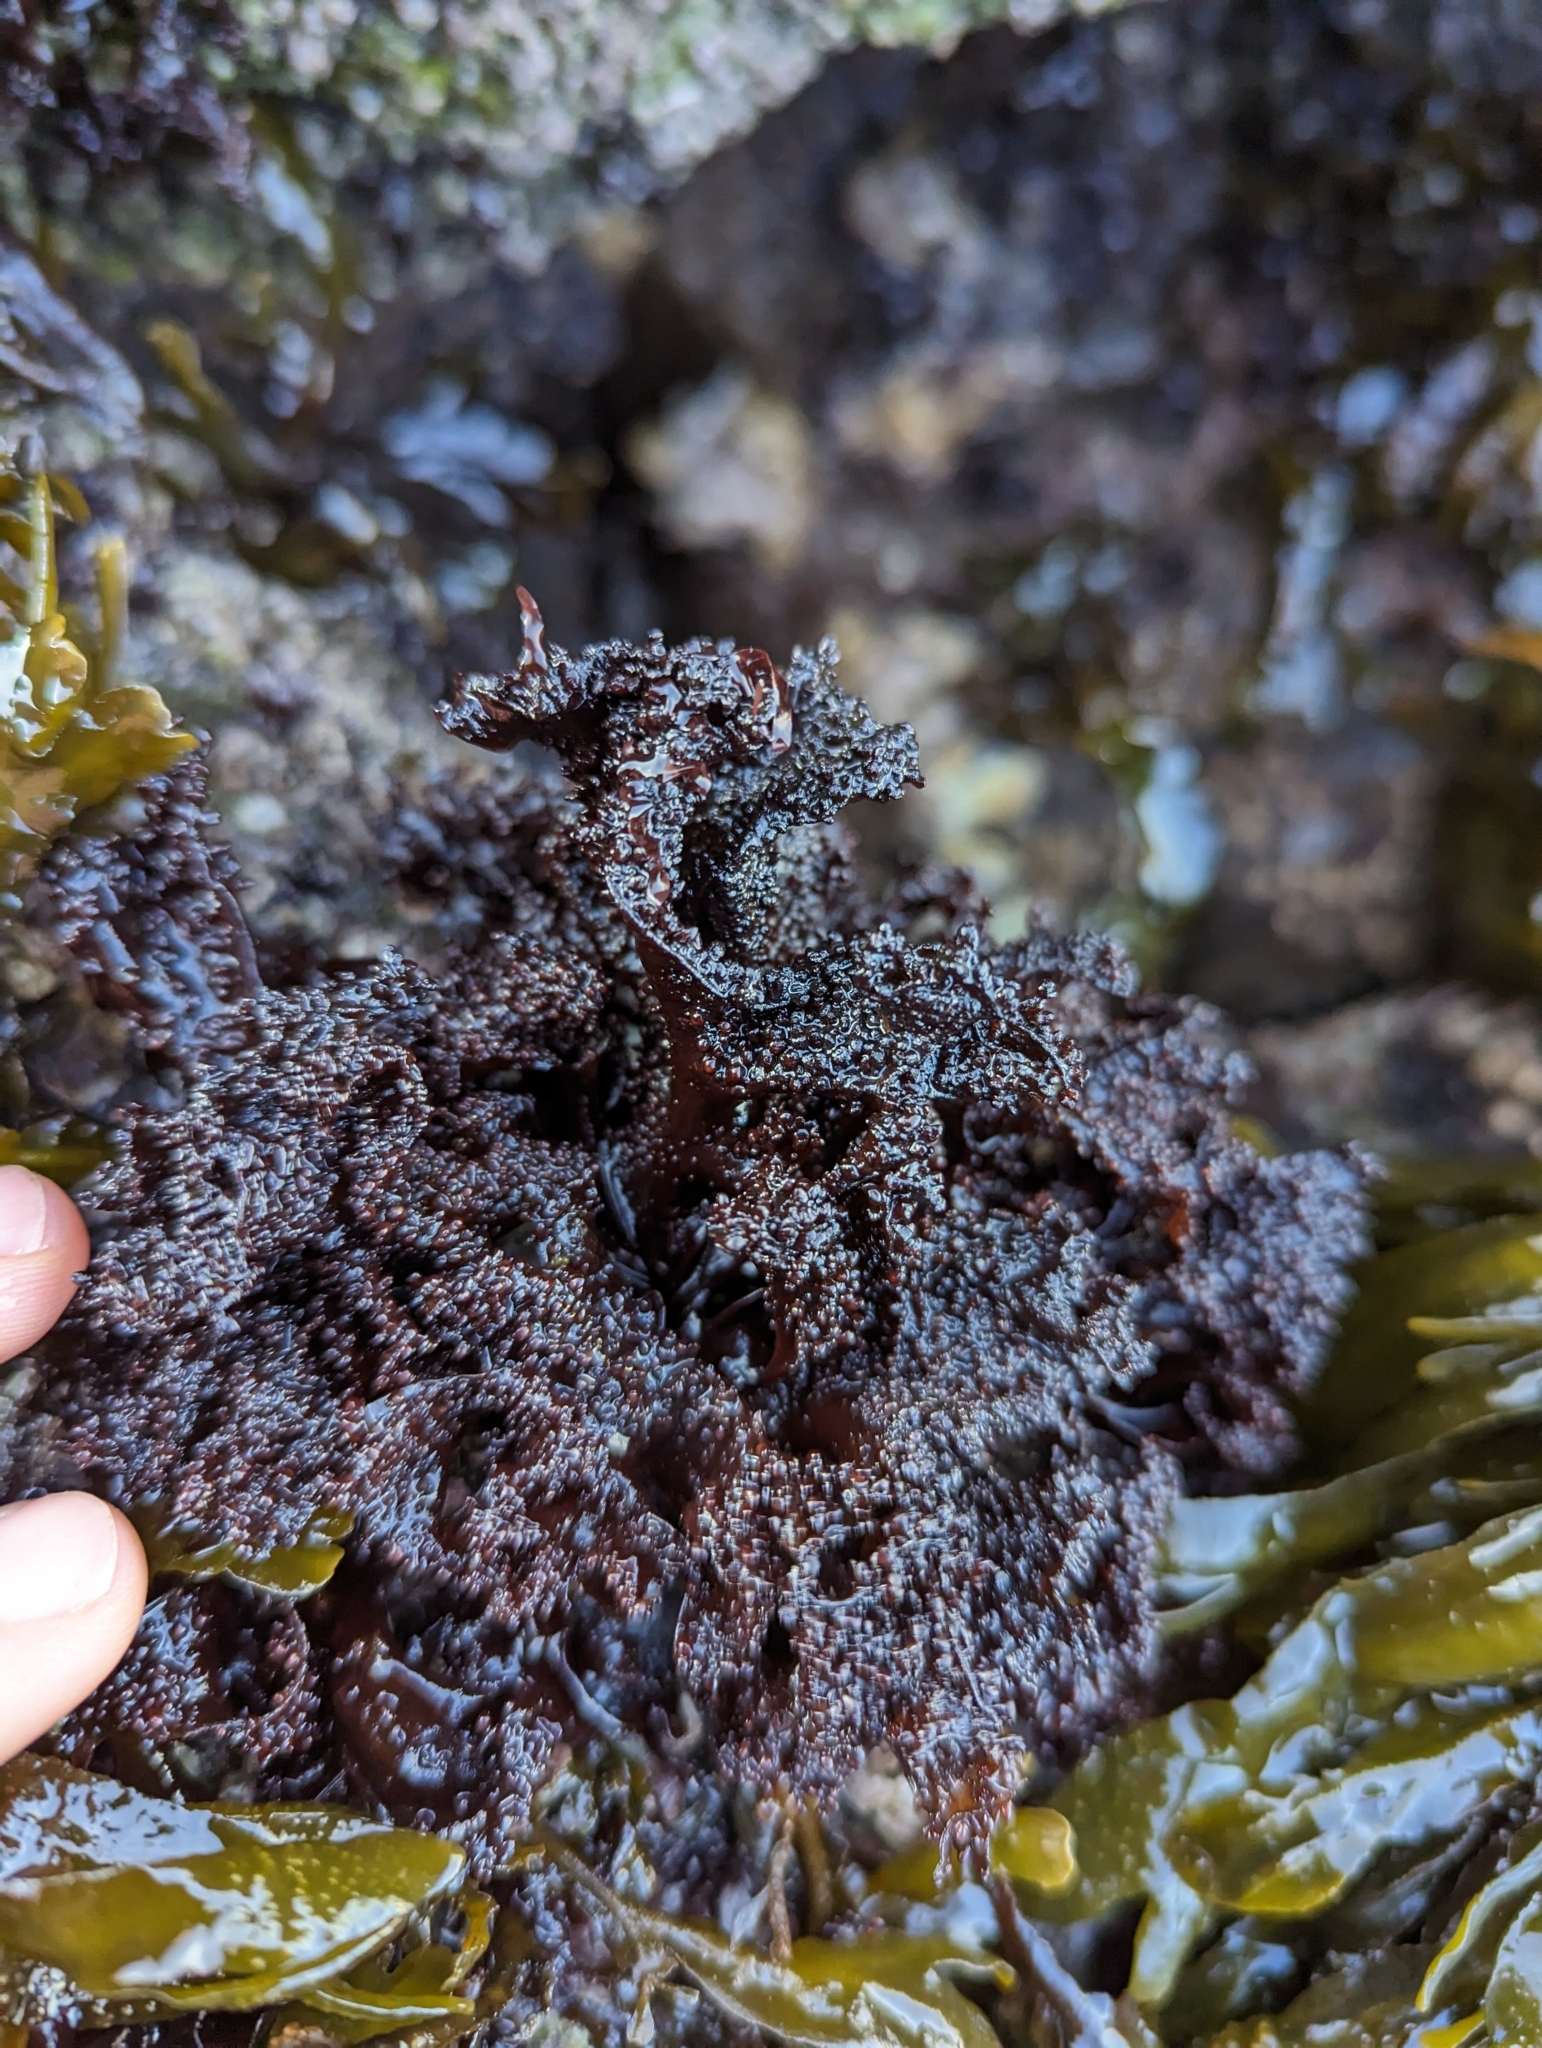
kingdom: Plantae
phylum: Rhodophyta
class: Florideophyceae
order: Gigartinales
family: Phyllophoraceae
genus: Mastocarpus
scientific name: Mastocarpus papillatus
